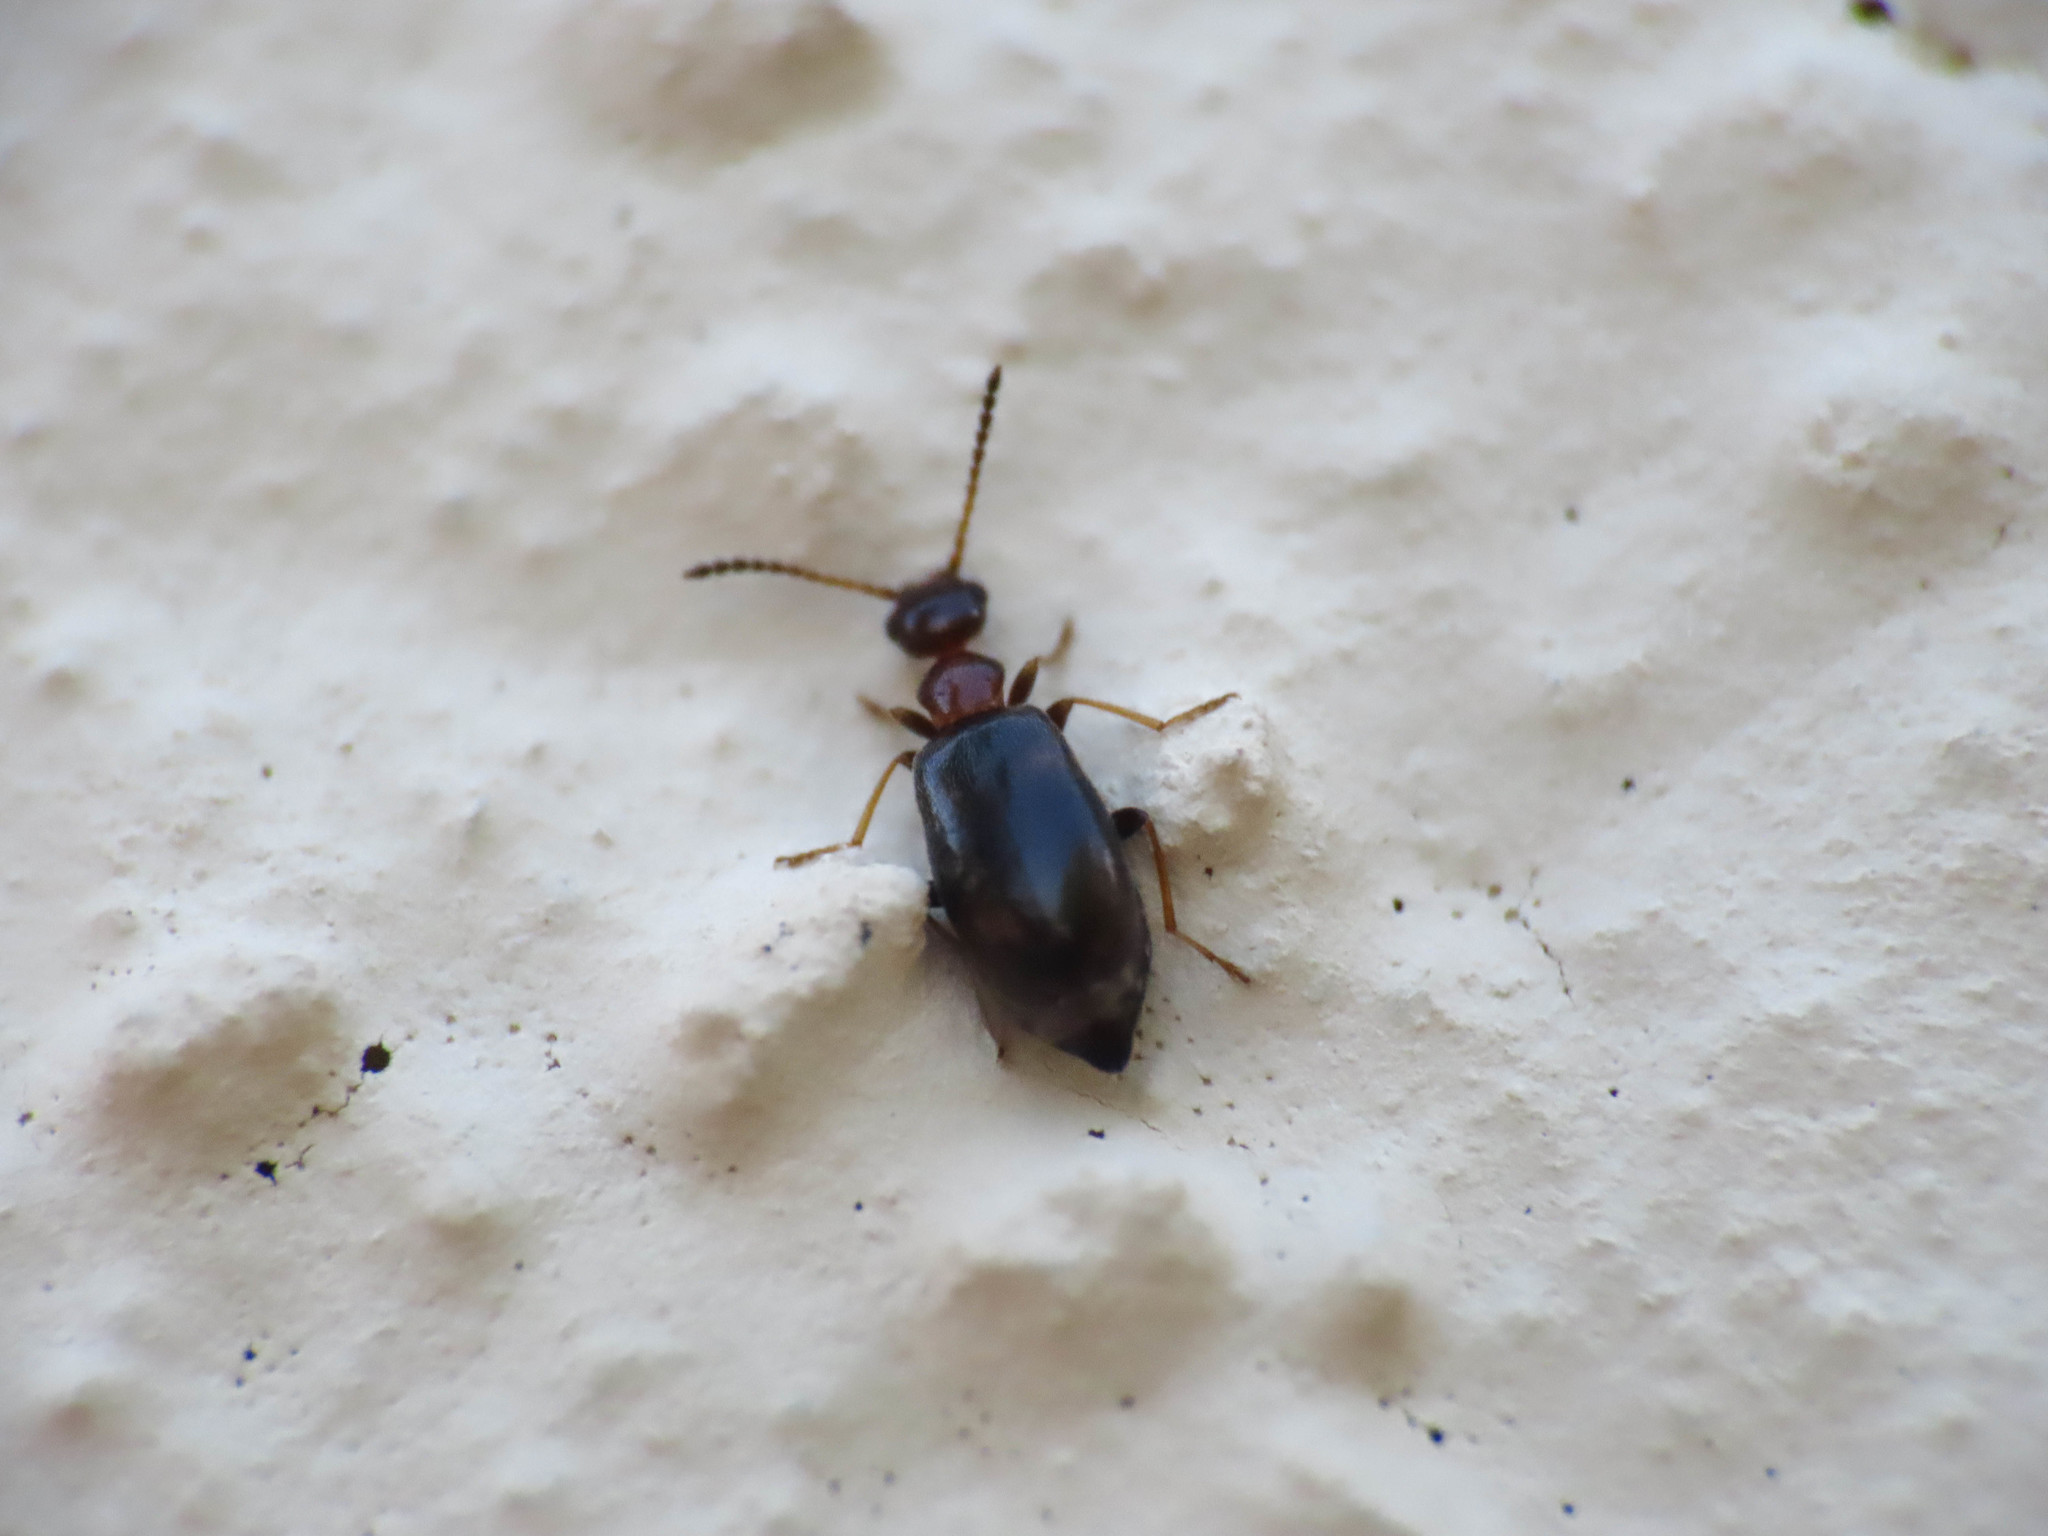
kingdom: Animalia
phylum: Arthropoda
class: Insecta
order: Coleoptera
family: Anthicidae
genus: Microhoria
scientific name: Microhoria terminata
